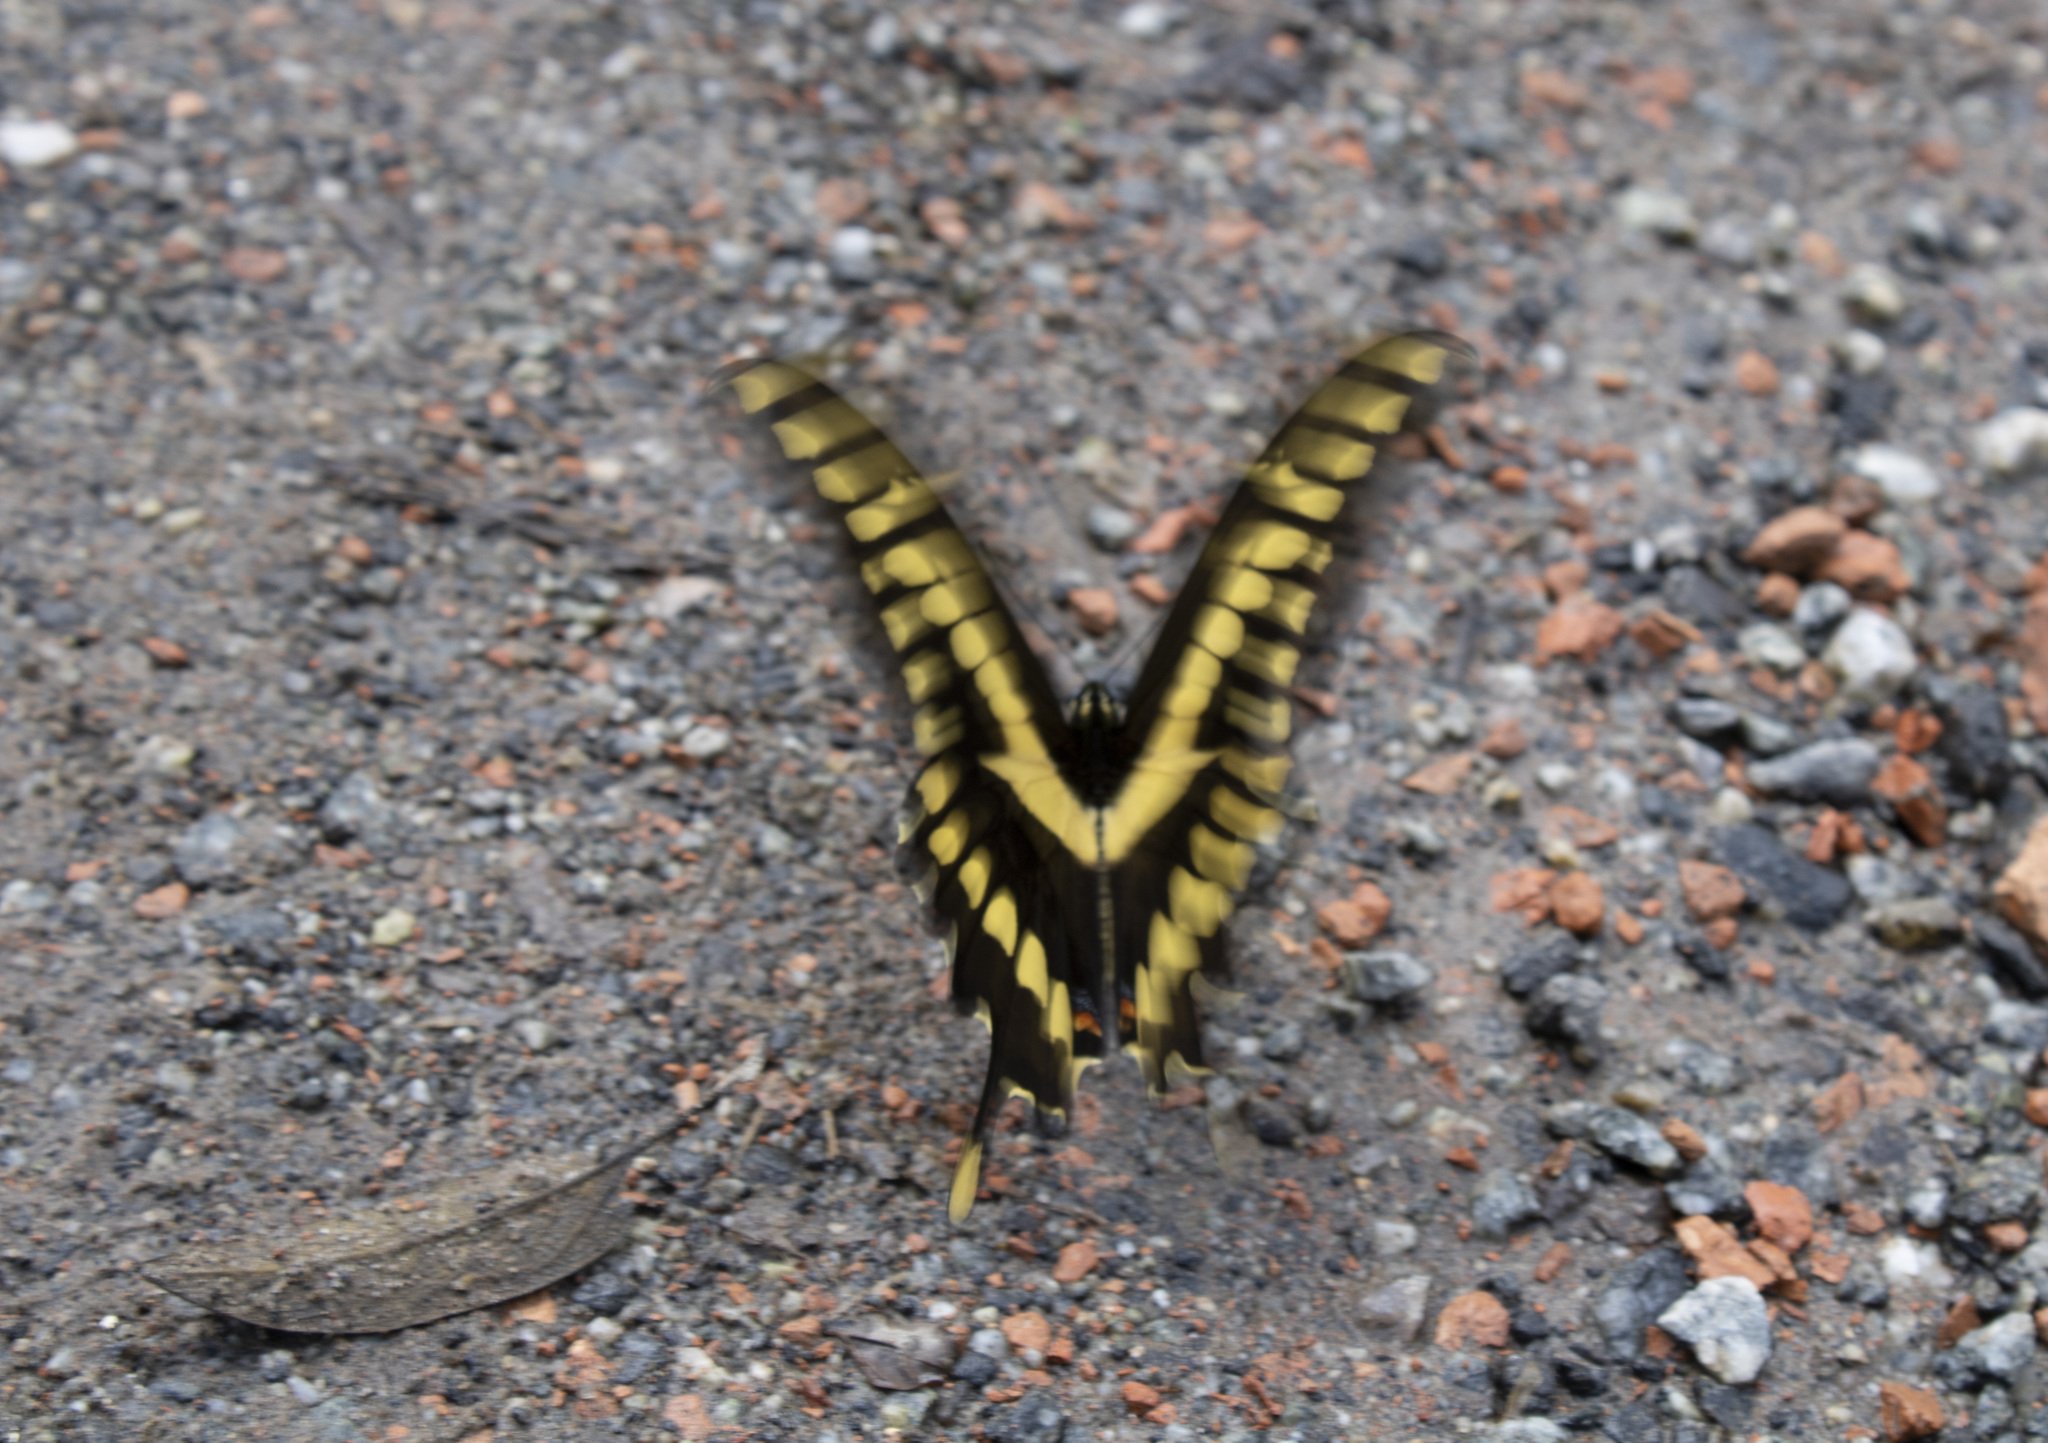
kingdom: Animalia
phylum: Arthropoda
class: Insecta
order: Lepidoptera
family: Papilionidae
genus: Papilio
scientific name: Papilio thoas
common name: King swallowtail
